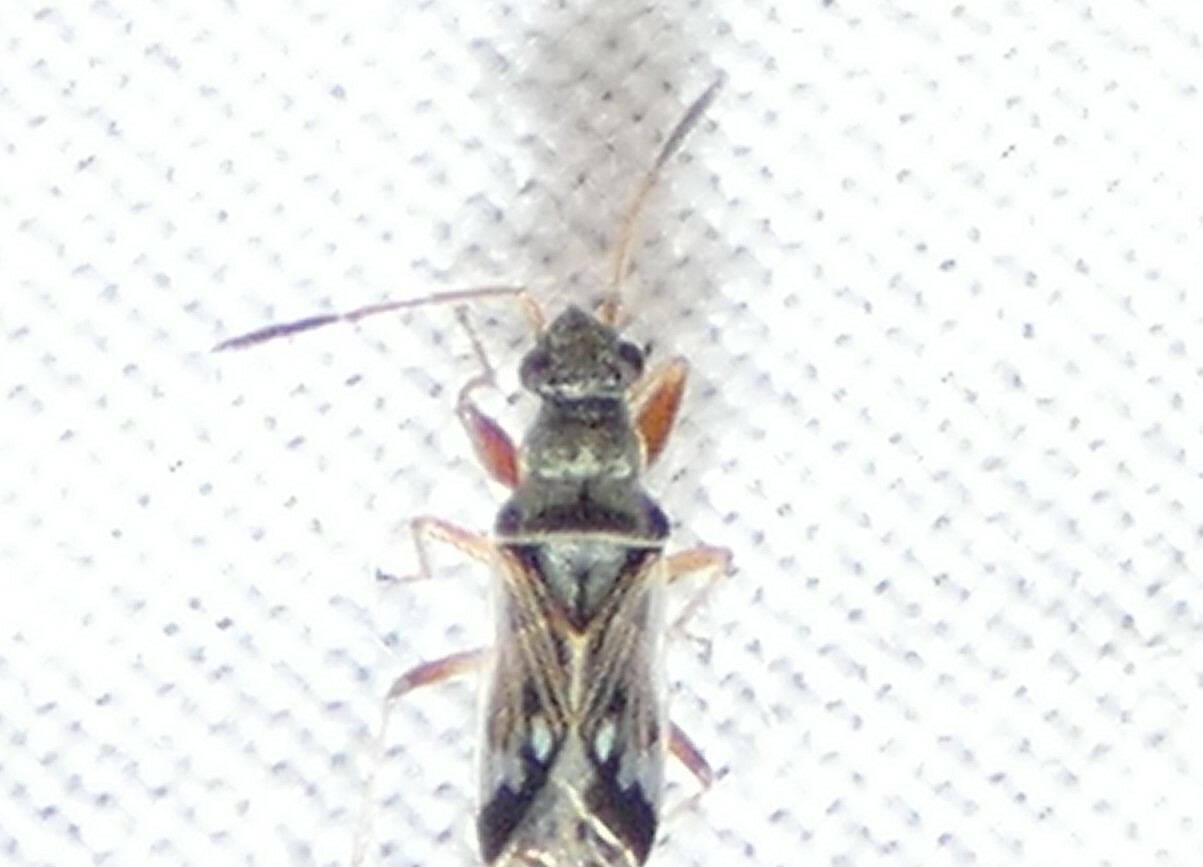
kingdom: Animalia
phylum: Arthropoda
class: Insecta
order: Hemiptera
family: Rhyparochromidae
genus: Pseudopachybrachius
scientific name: Pseudopachybrachius vinctus
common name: Dirt-colored seed bug
